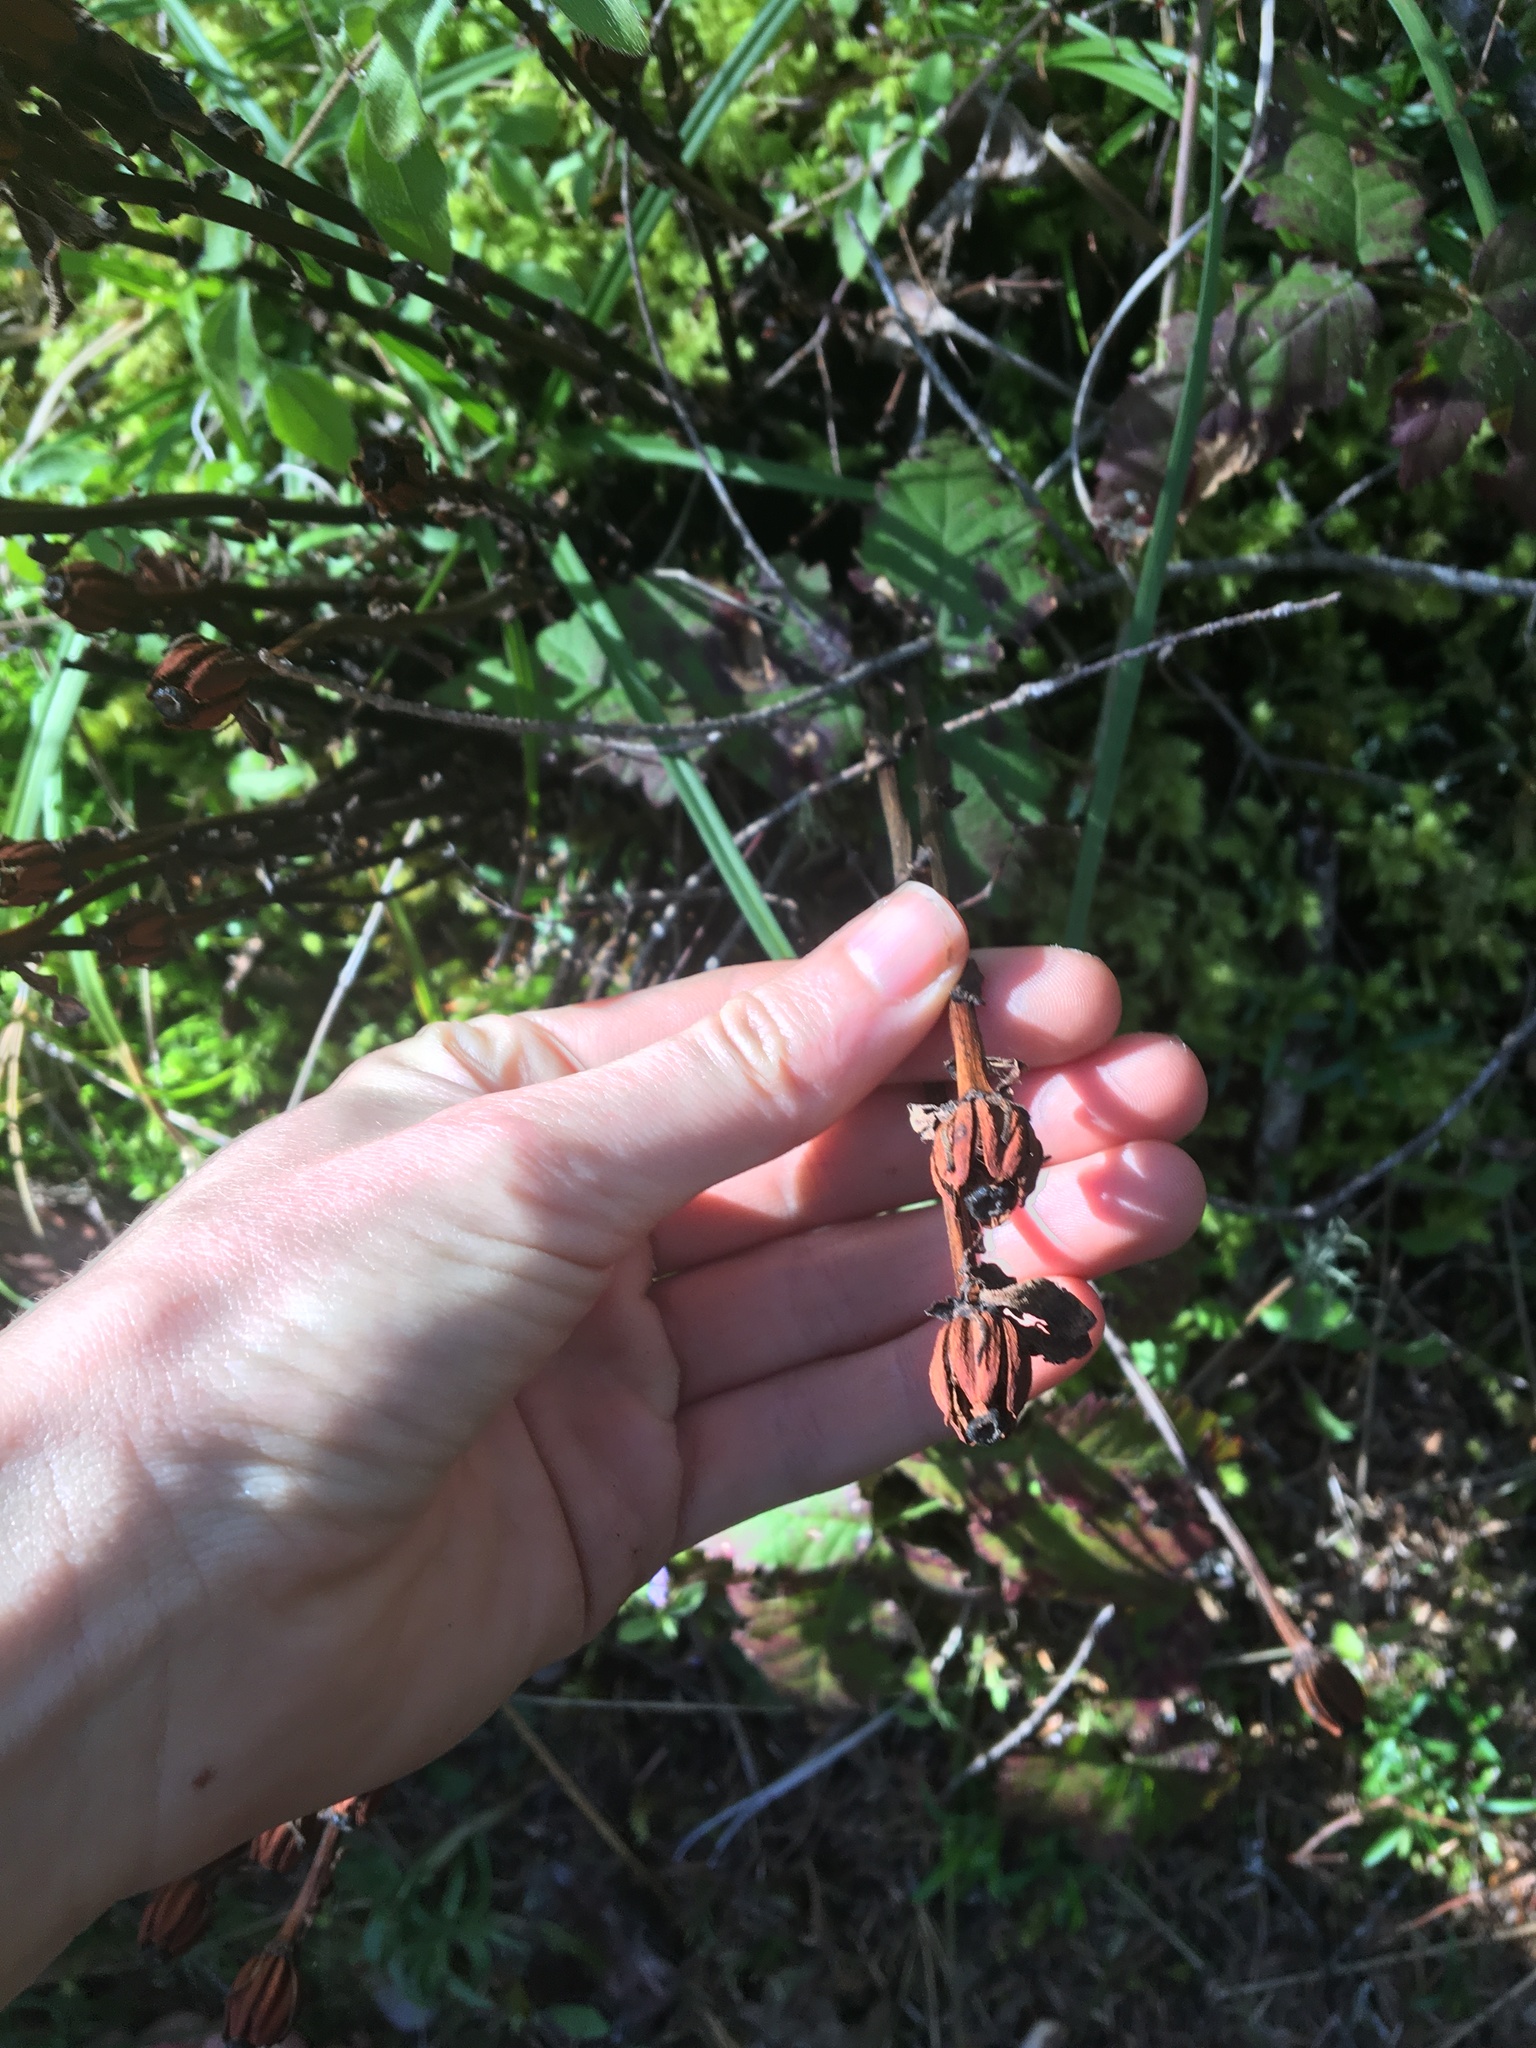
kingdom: Plantae
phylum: Tracheophyta
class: Magnoliopsida
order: Ericales
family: Ericaceae
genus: Monotropa
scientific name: Monotropa uniflora
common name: Convulsion root
